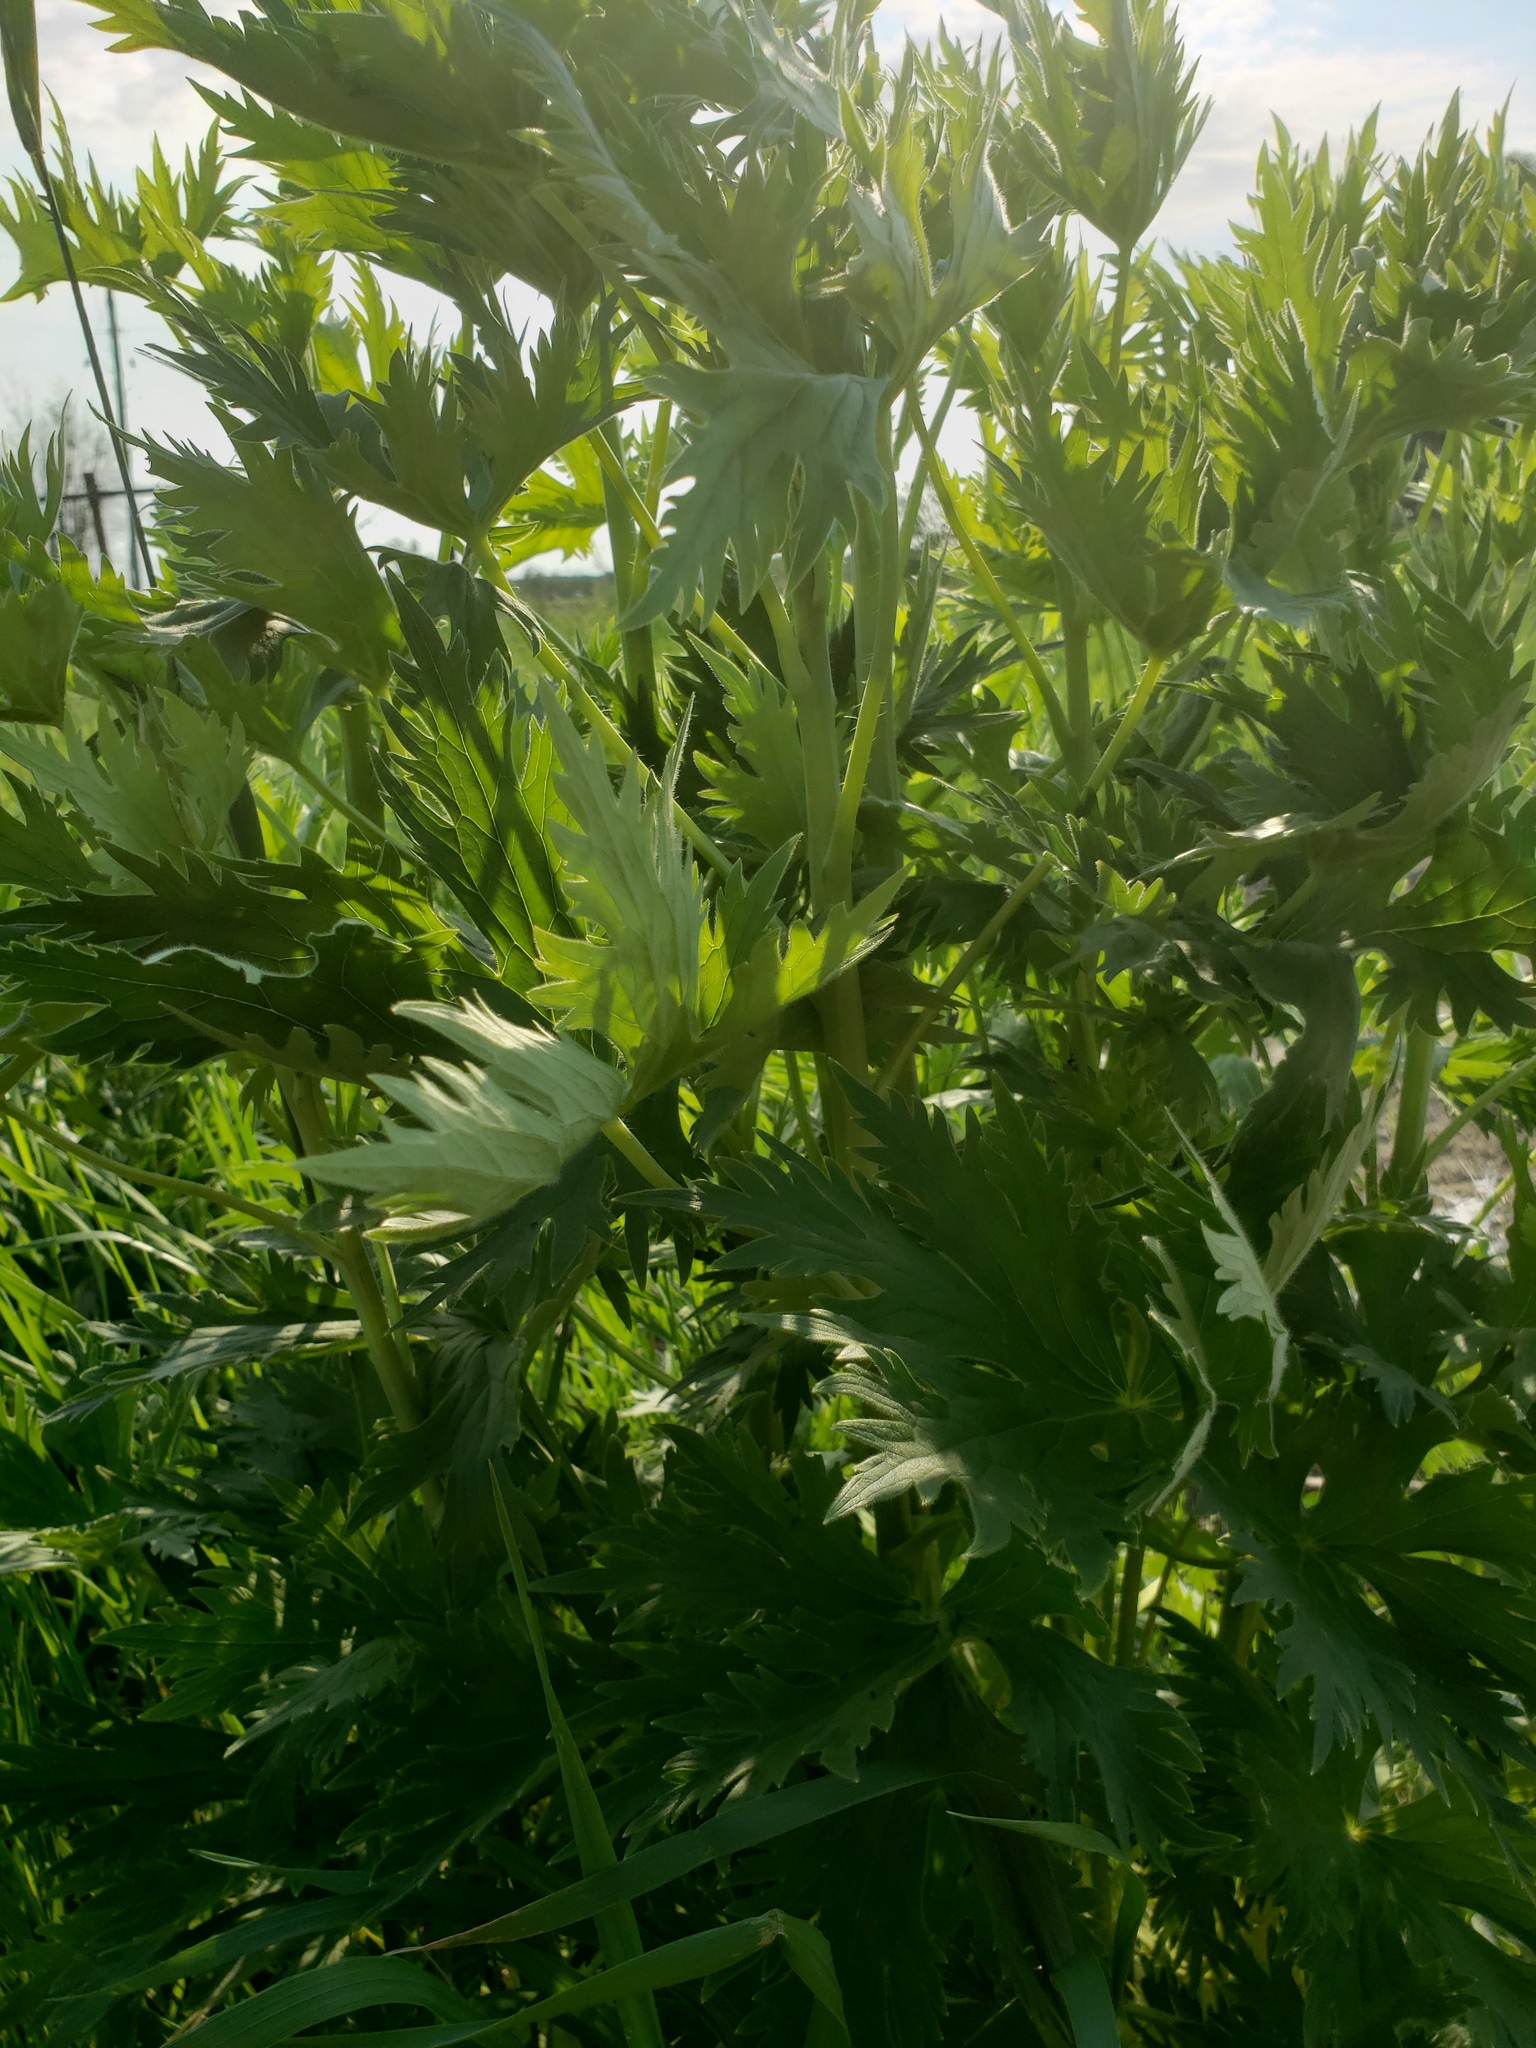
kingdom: Plantae
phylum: Tracheophyta
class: Magnoliopsida
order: Ranunculales
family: Ranunculaceae
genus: Delphinium
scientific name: Delphinium cultorum
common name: Garden delphinium
